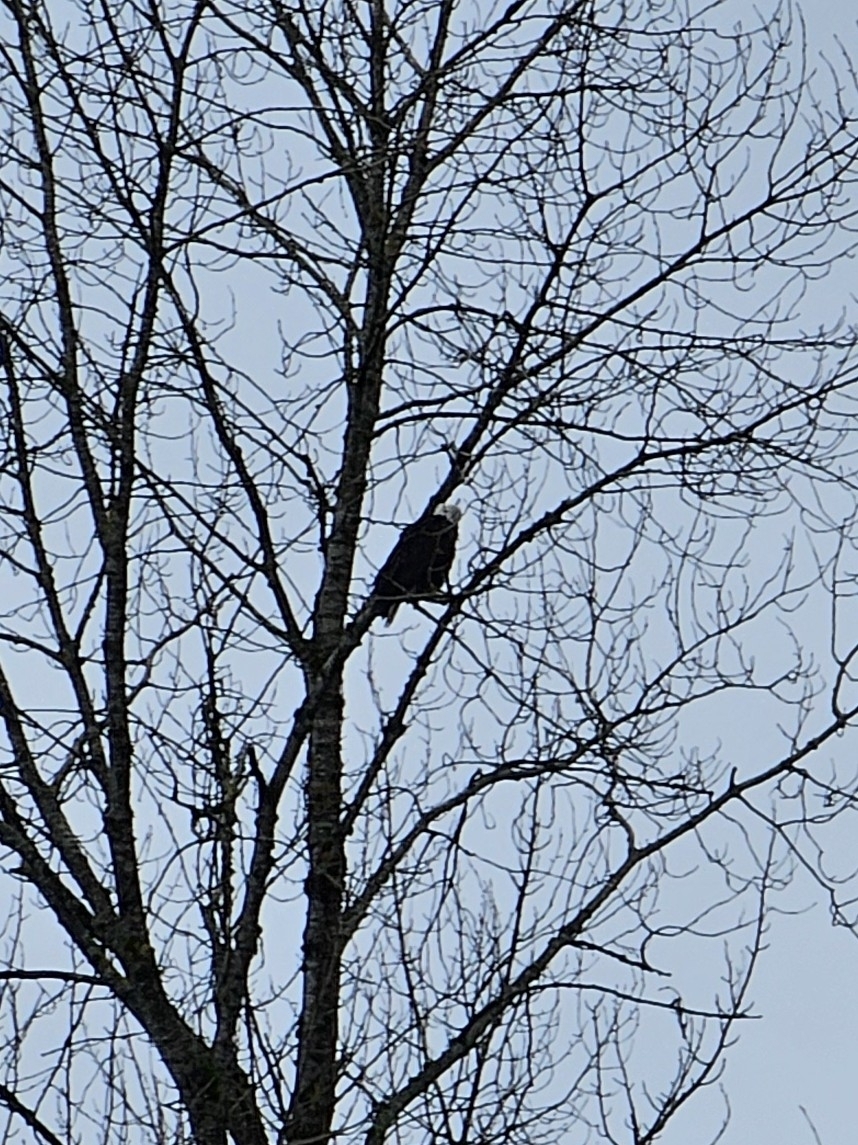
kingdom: Animalia
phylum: Chordata
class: Aves
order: Accipitriformes
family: Accipitridae
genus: Haliaeetus
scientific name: Haliaeetus leucocephalus
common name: Bald eagle
